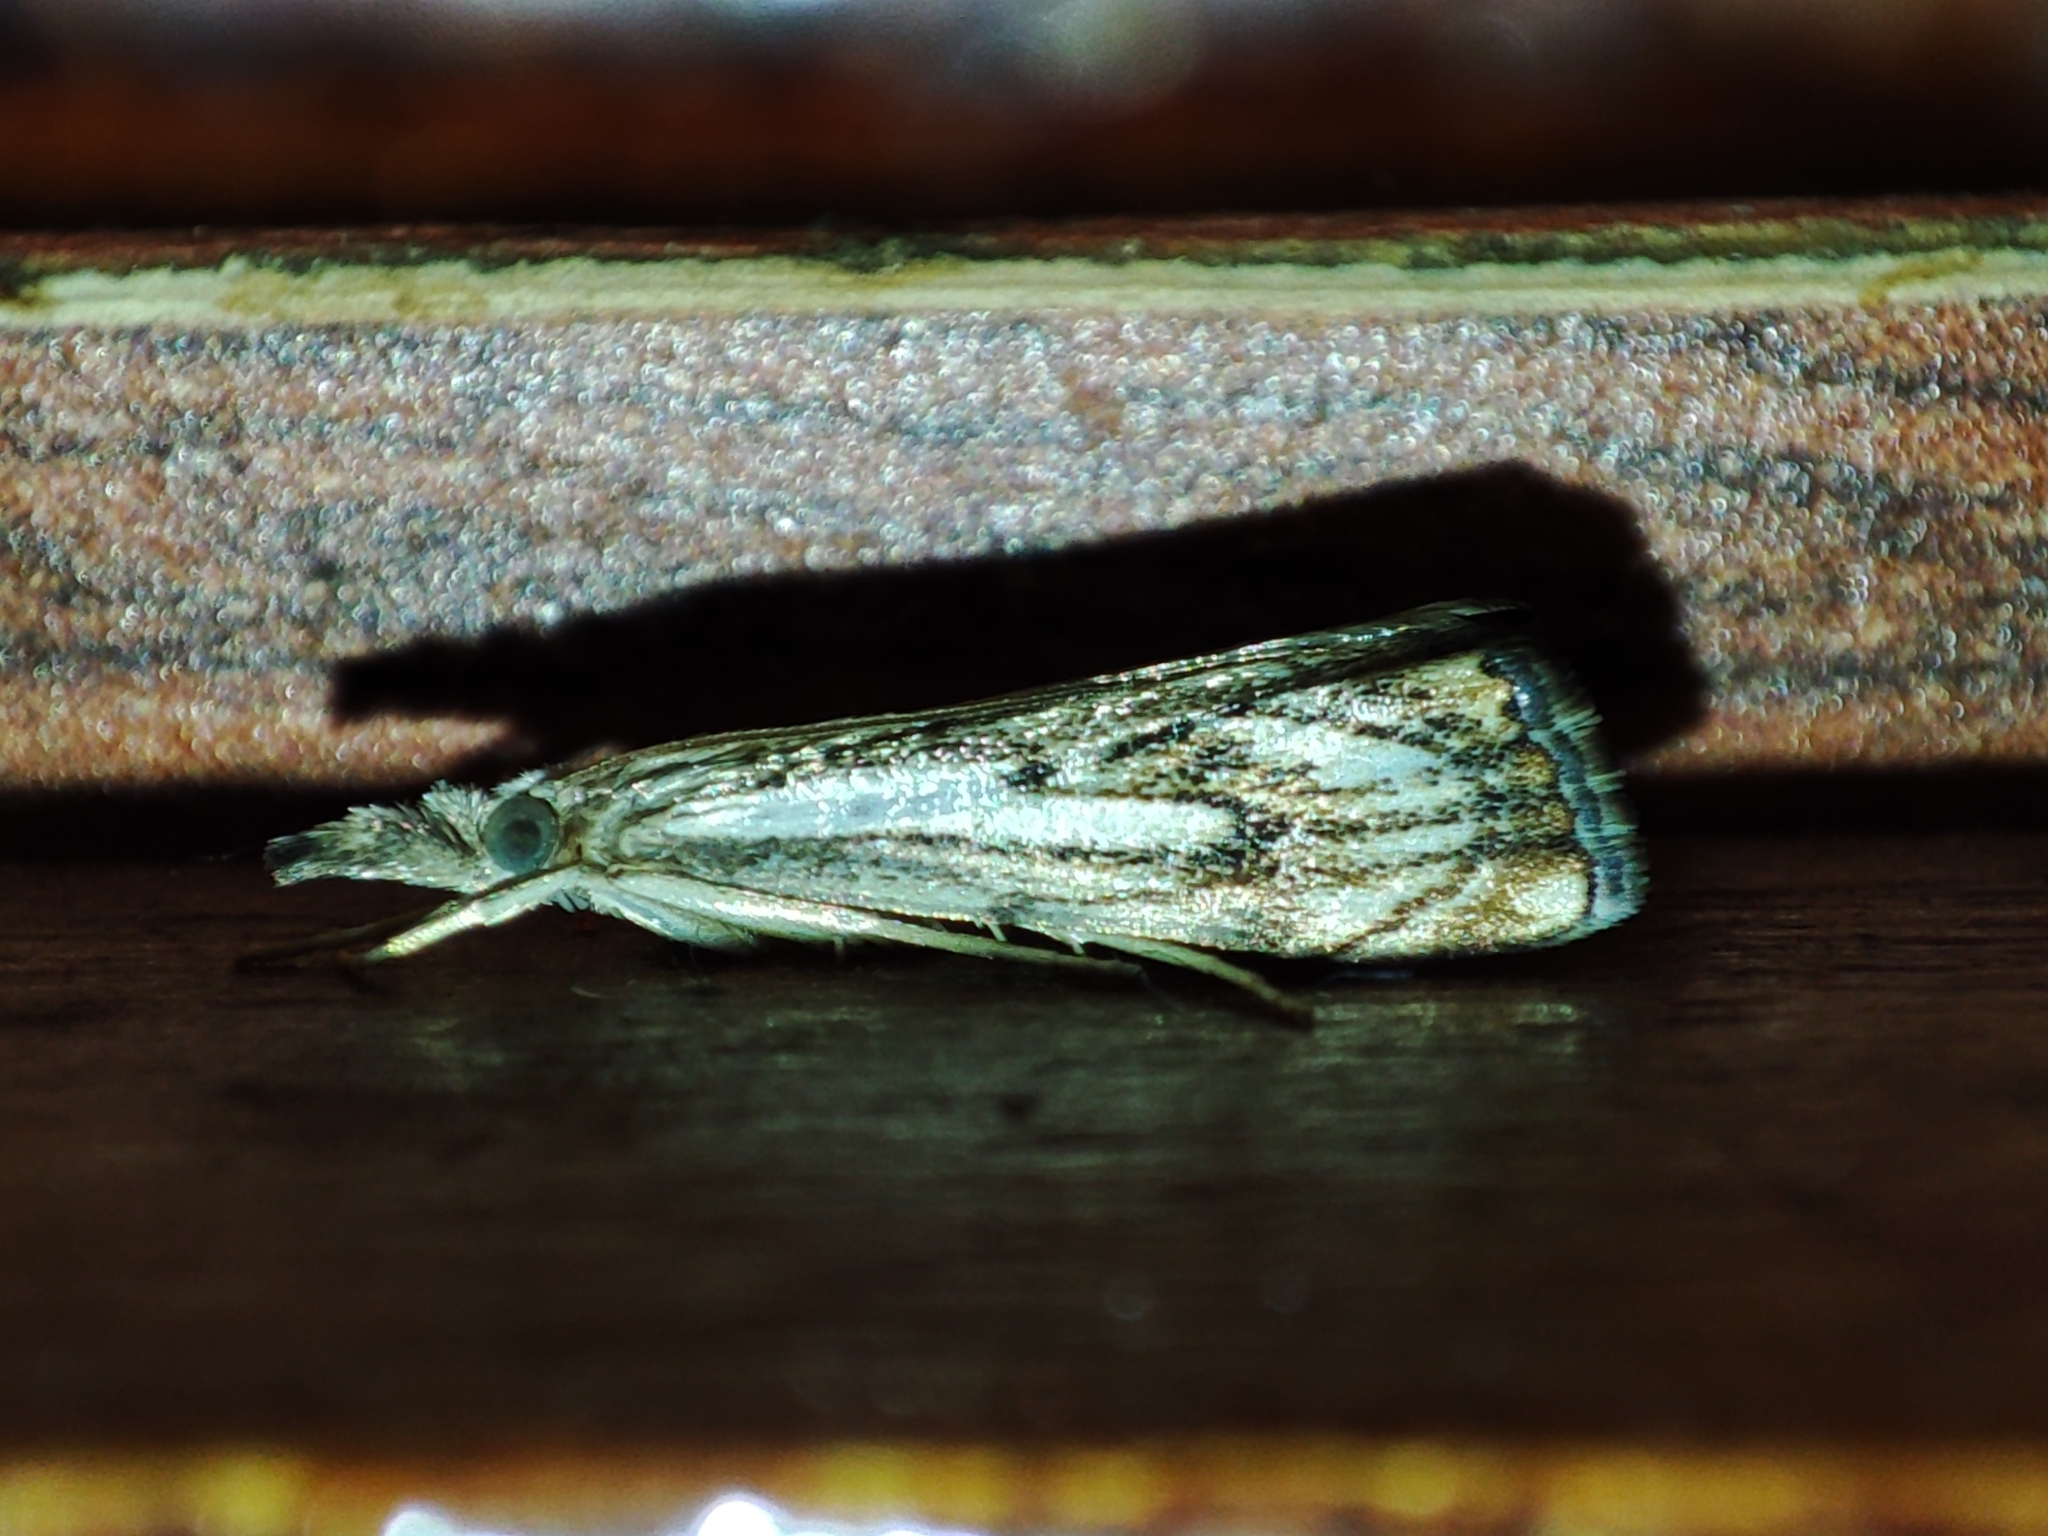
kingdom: Animalia
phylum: Arthropoda
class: Insecta
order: Lepidoptera
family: Crambidae
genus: Catoptria
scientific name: Catoptria falsella
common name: Chequered grass-veneer
